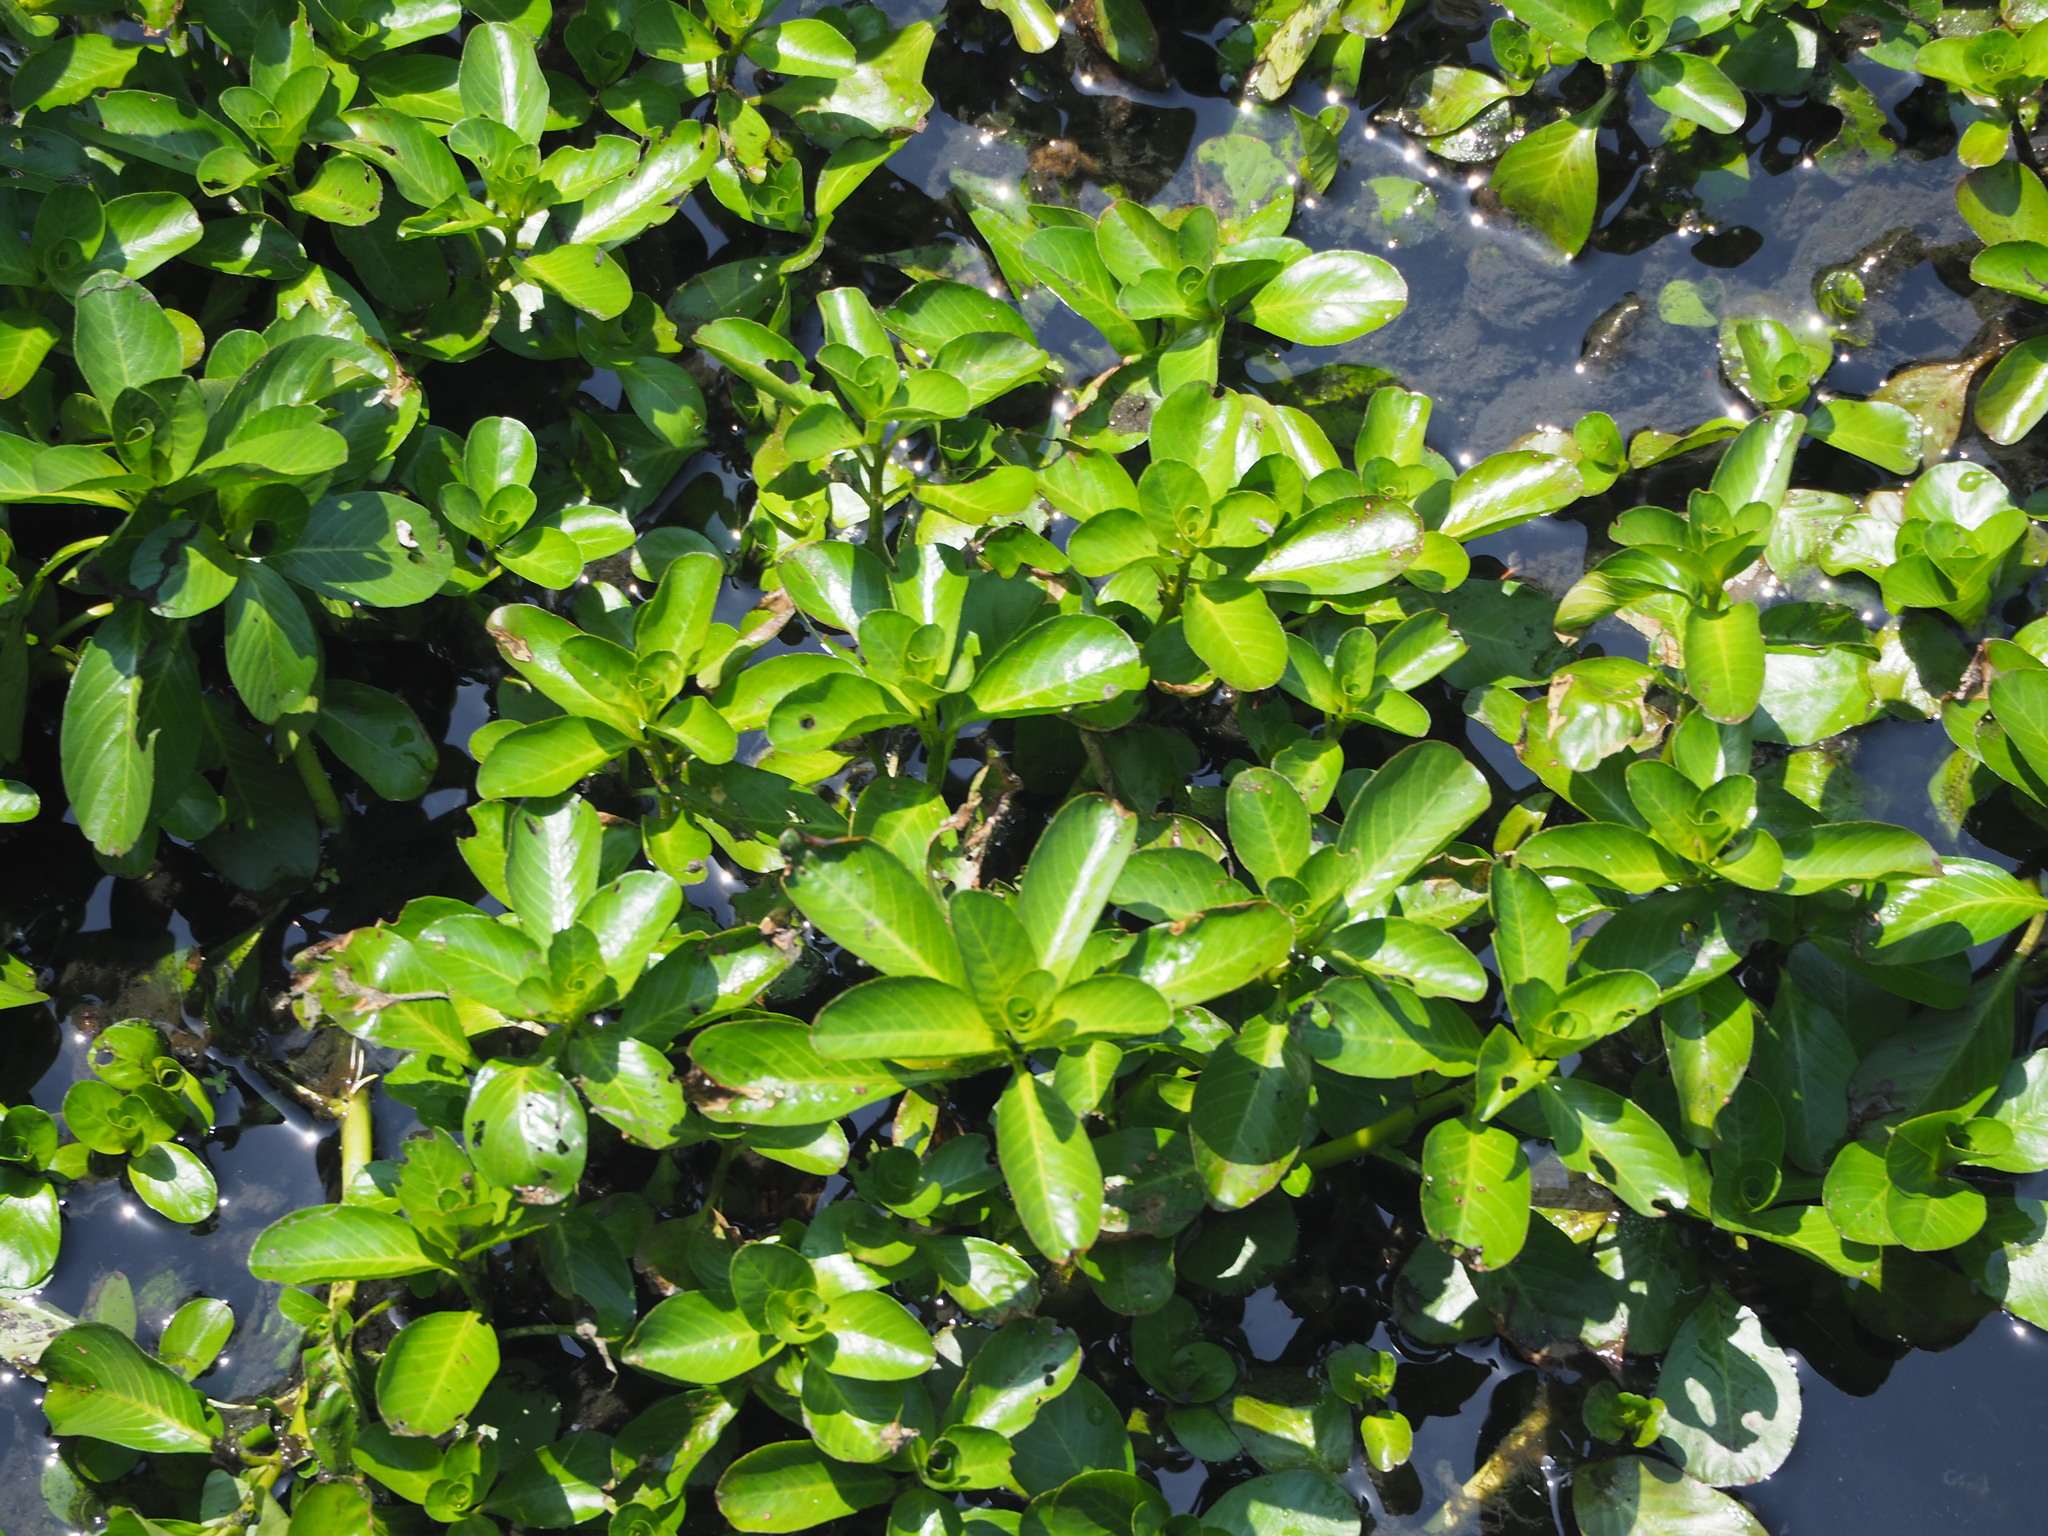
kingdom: Plantae
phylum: Tracheophyta
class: Magnoliopsida
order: Myrtales
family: Onagraceae
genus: Ludwigia
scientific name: Ludwigia taiwanensis
